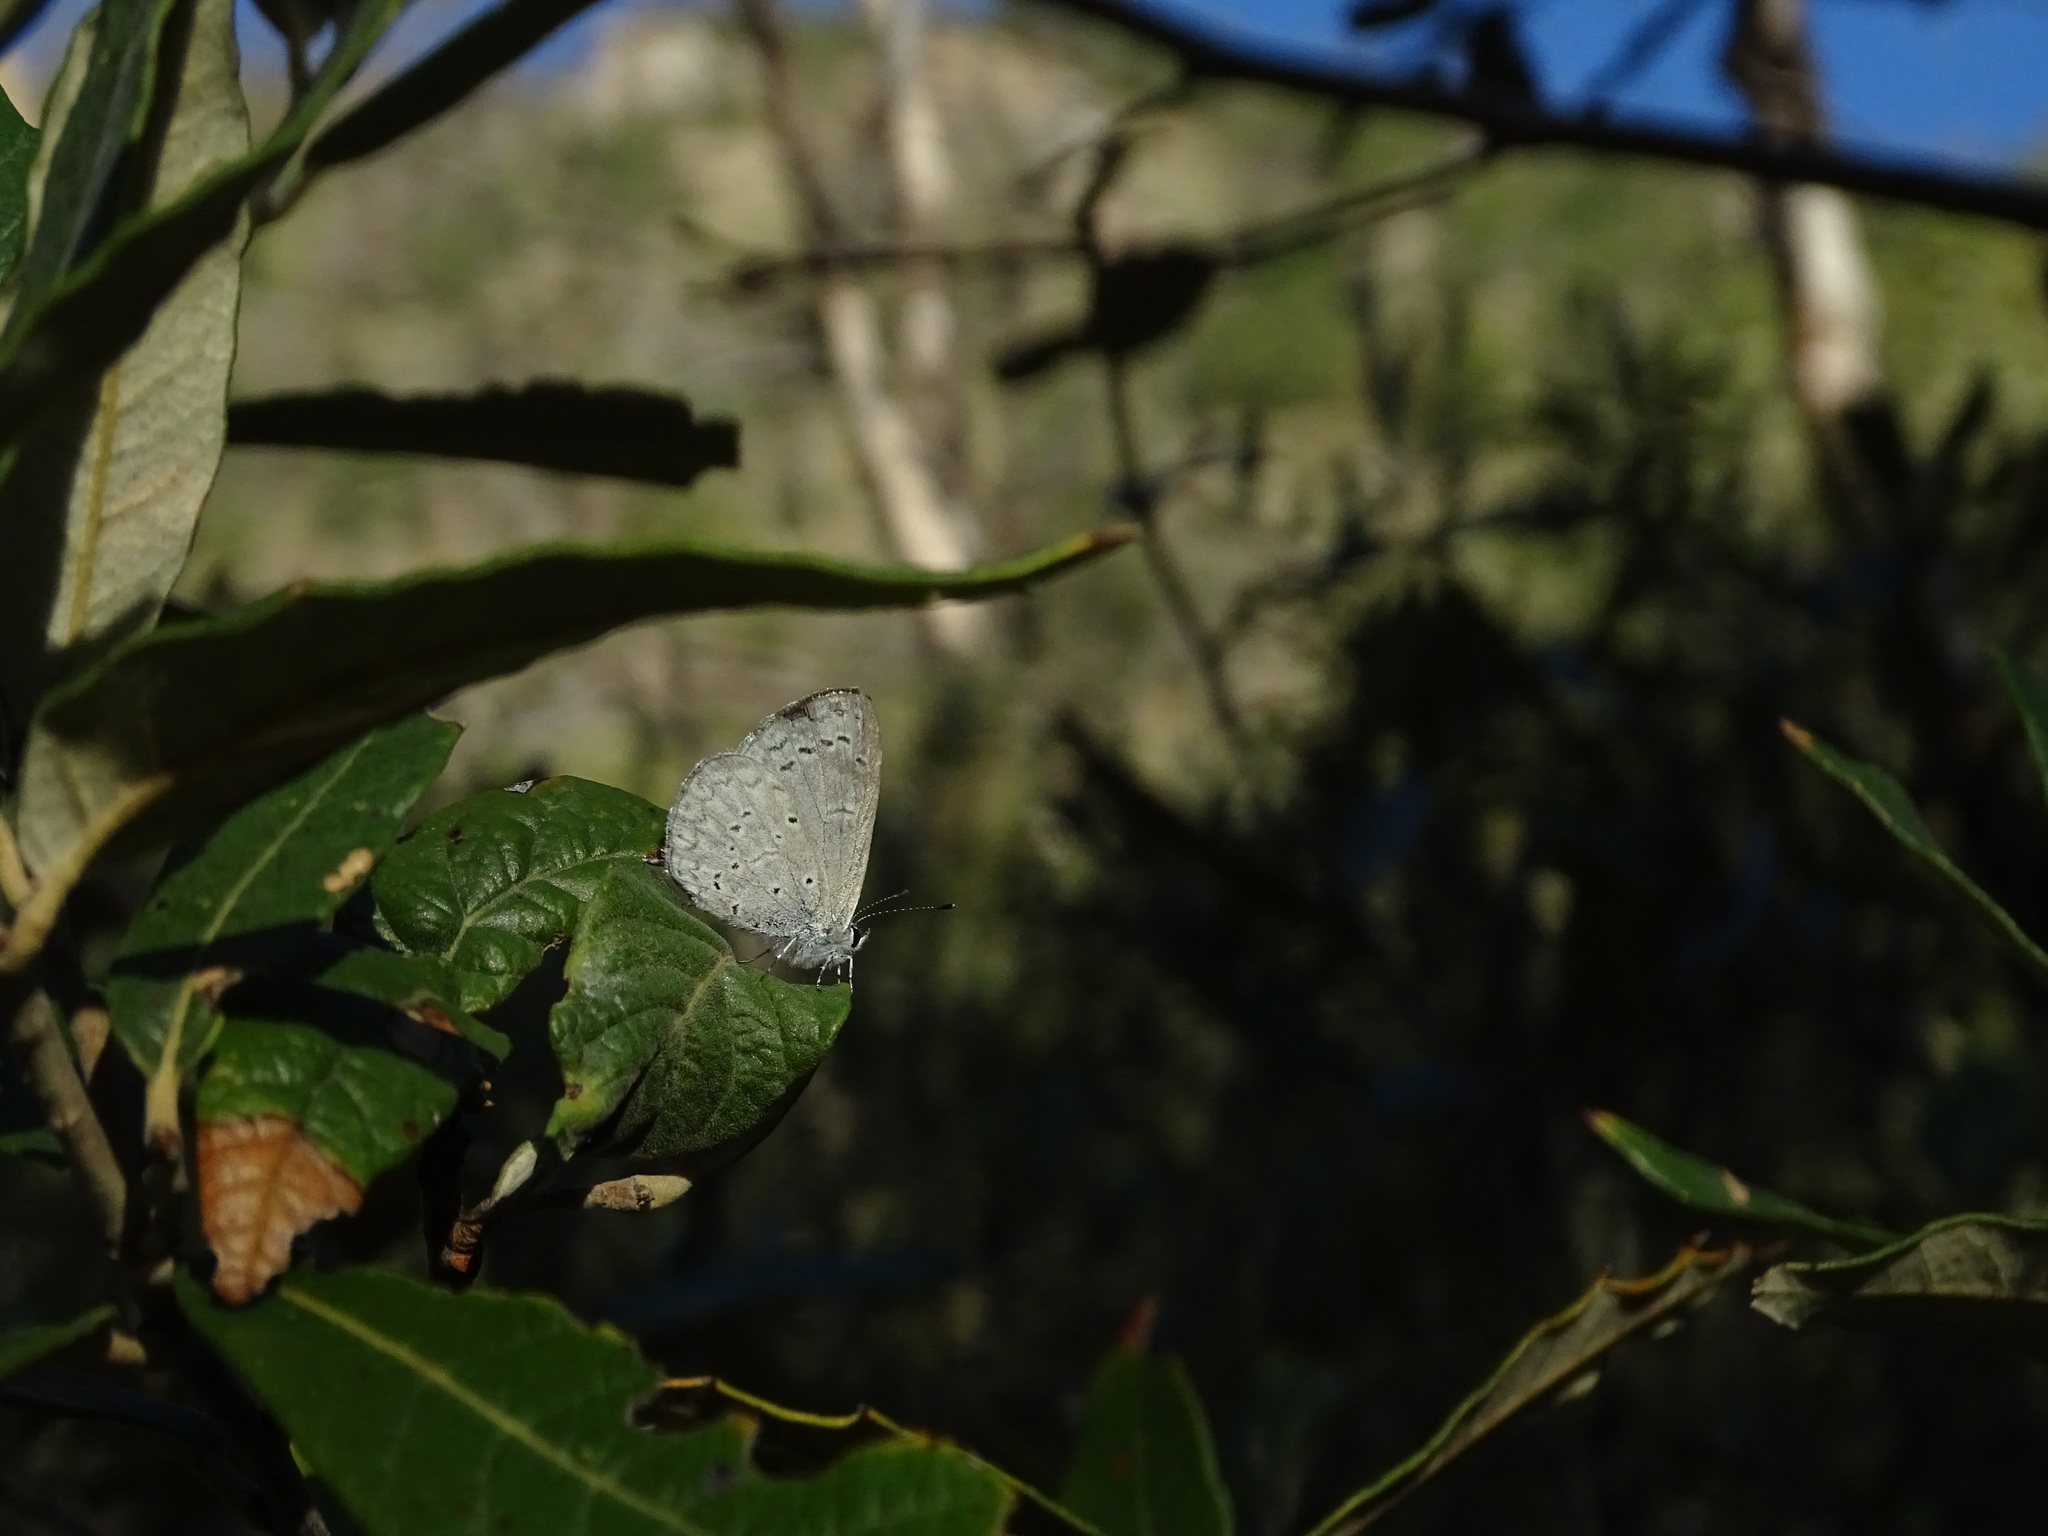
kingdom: Animalia
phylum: Arthropoda
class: Insecta
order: Lepidoptera
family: Lycaenidae
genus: Celastrina
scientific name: Celastrina ladon
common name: Spring azure
